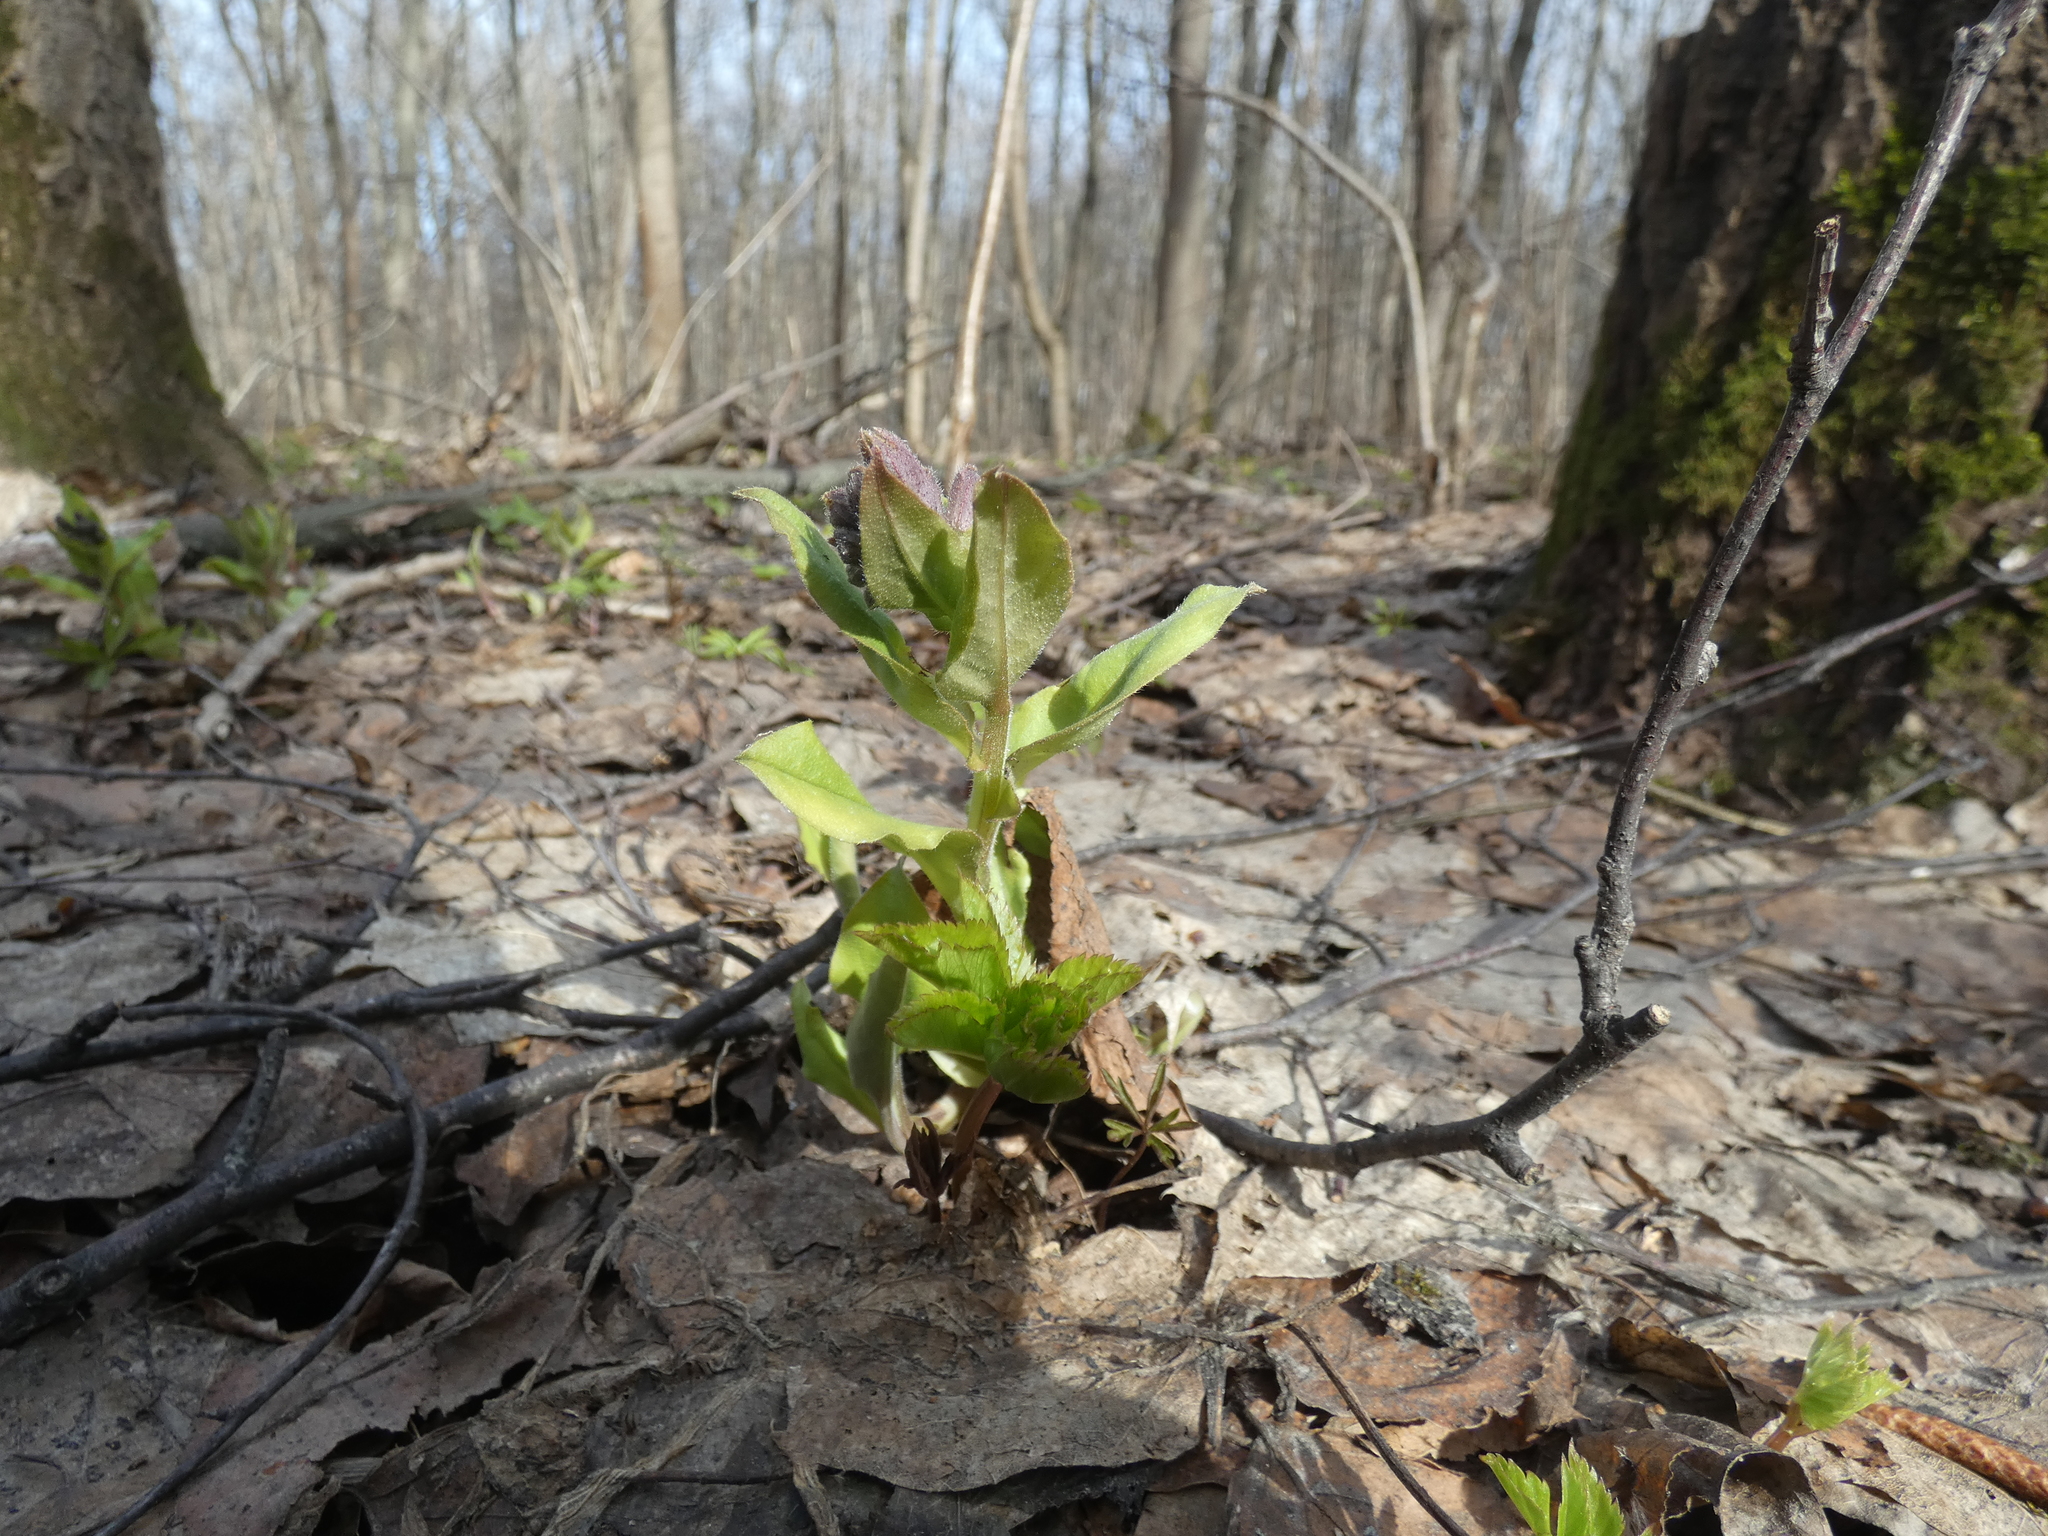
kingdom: Plantae
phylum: Tracheophyta
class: Magnoliopsida
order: Boraginales
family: Boraginaceae
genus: Pulmonaria
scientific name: Pulmonaria obscura
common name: Suffolk lungwort
